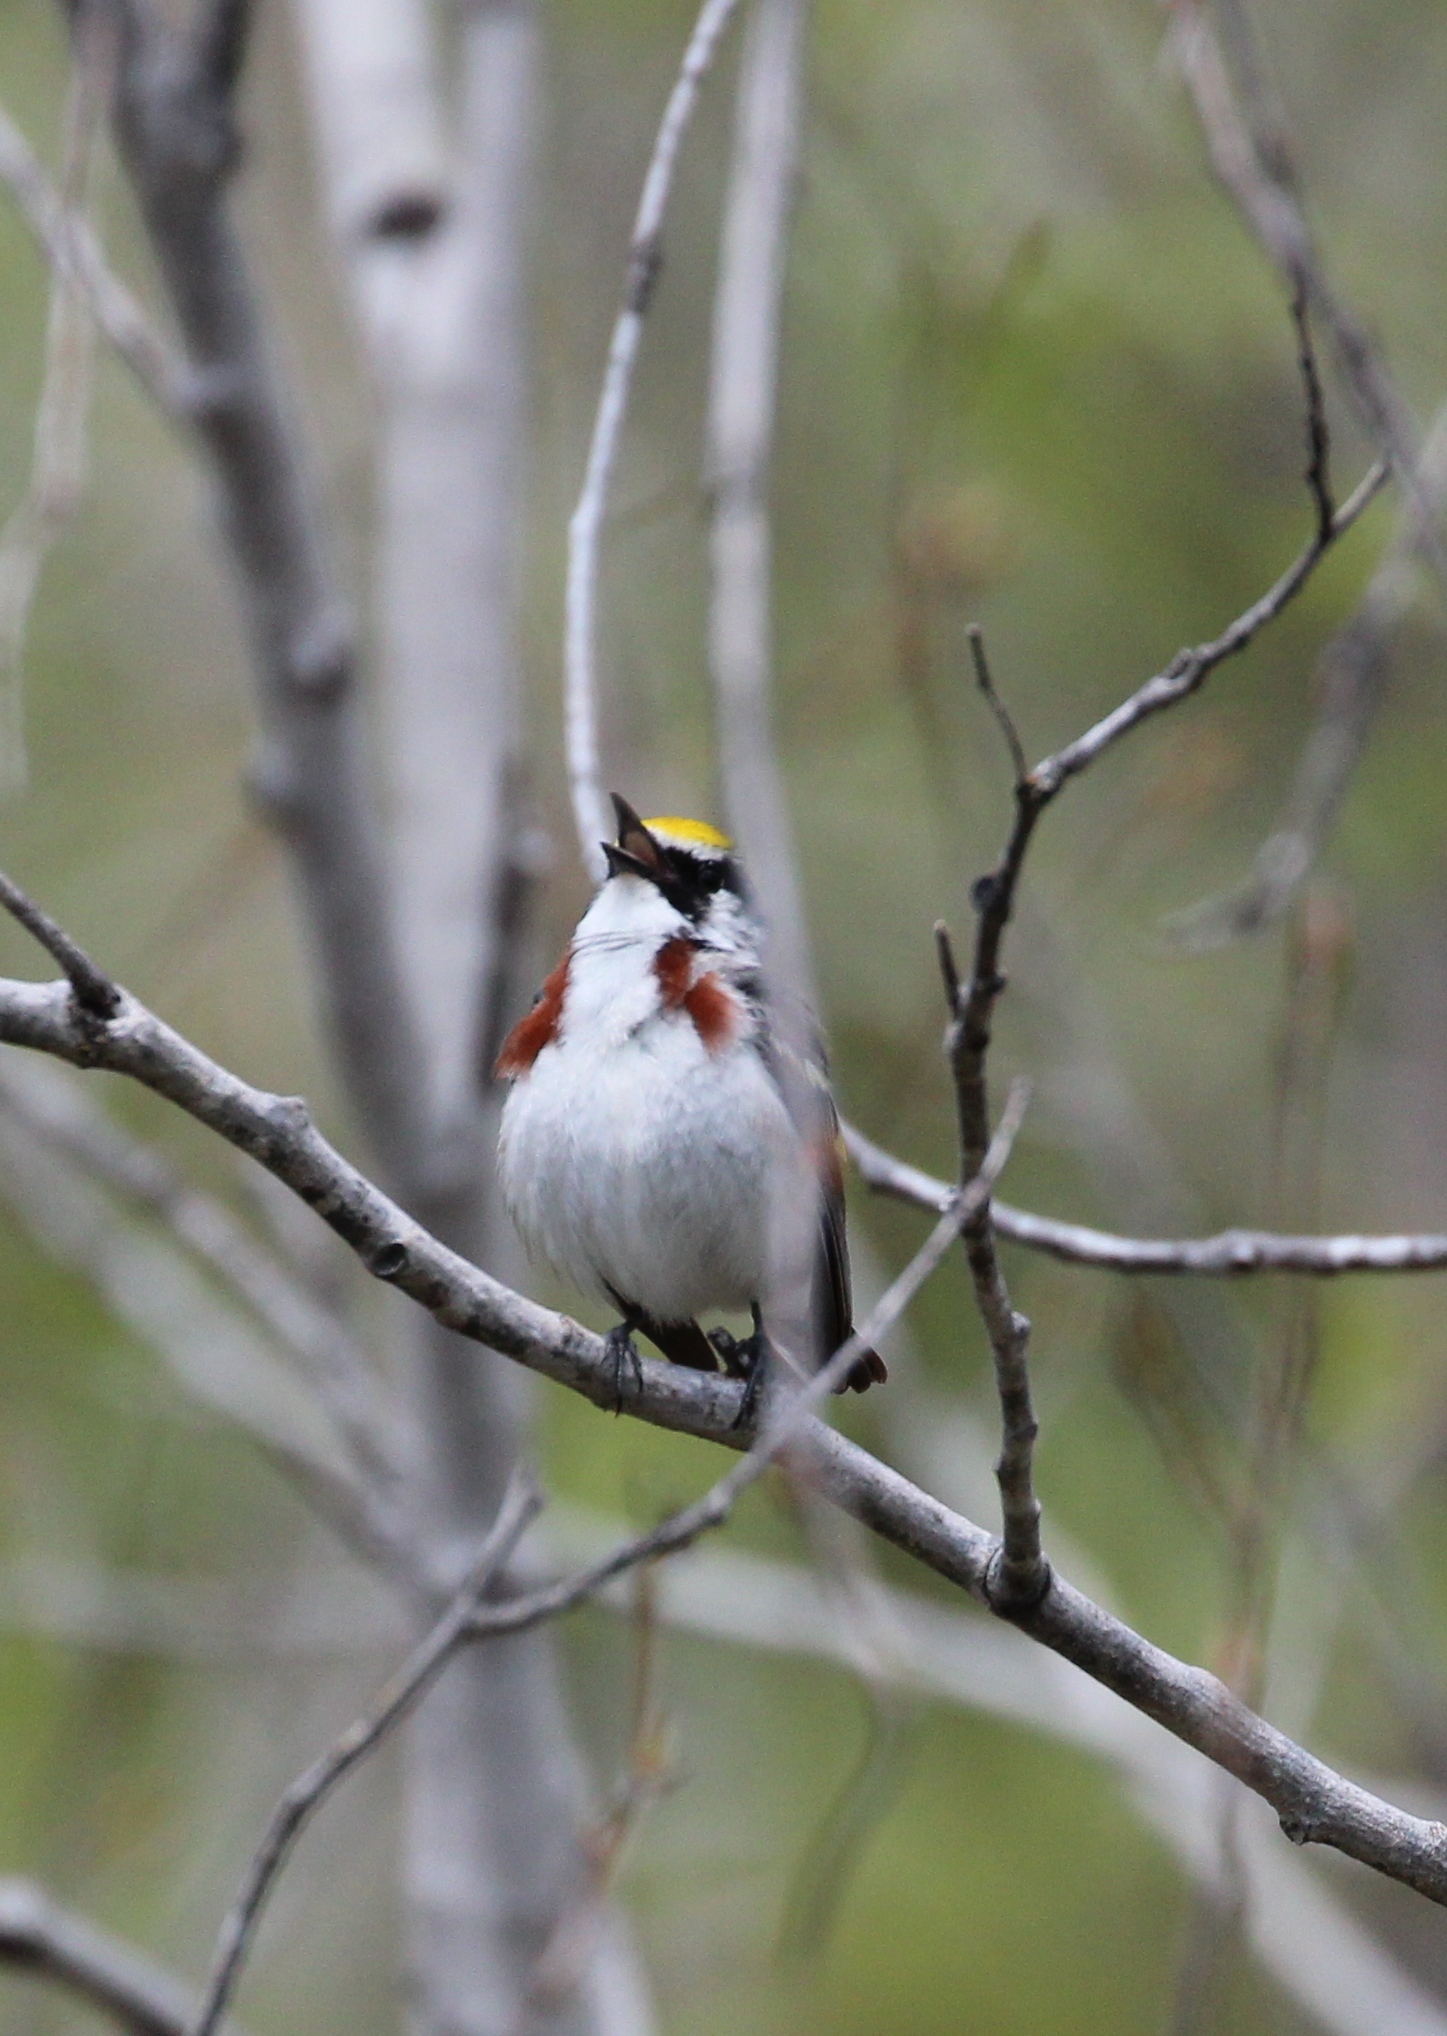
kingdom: Animalia
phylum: Chordata
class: Aves
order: Passeriformes
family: Parulidae
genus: Setophaga
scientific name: Setophaga pensylvanica
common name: Chestnut-sided warbler
